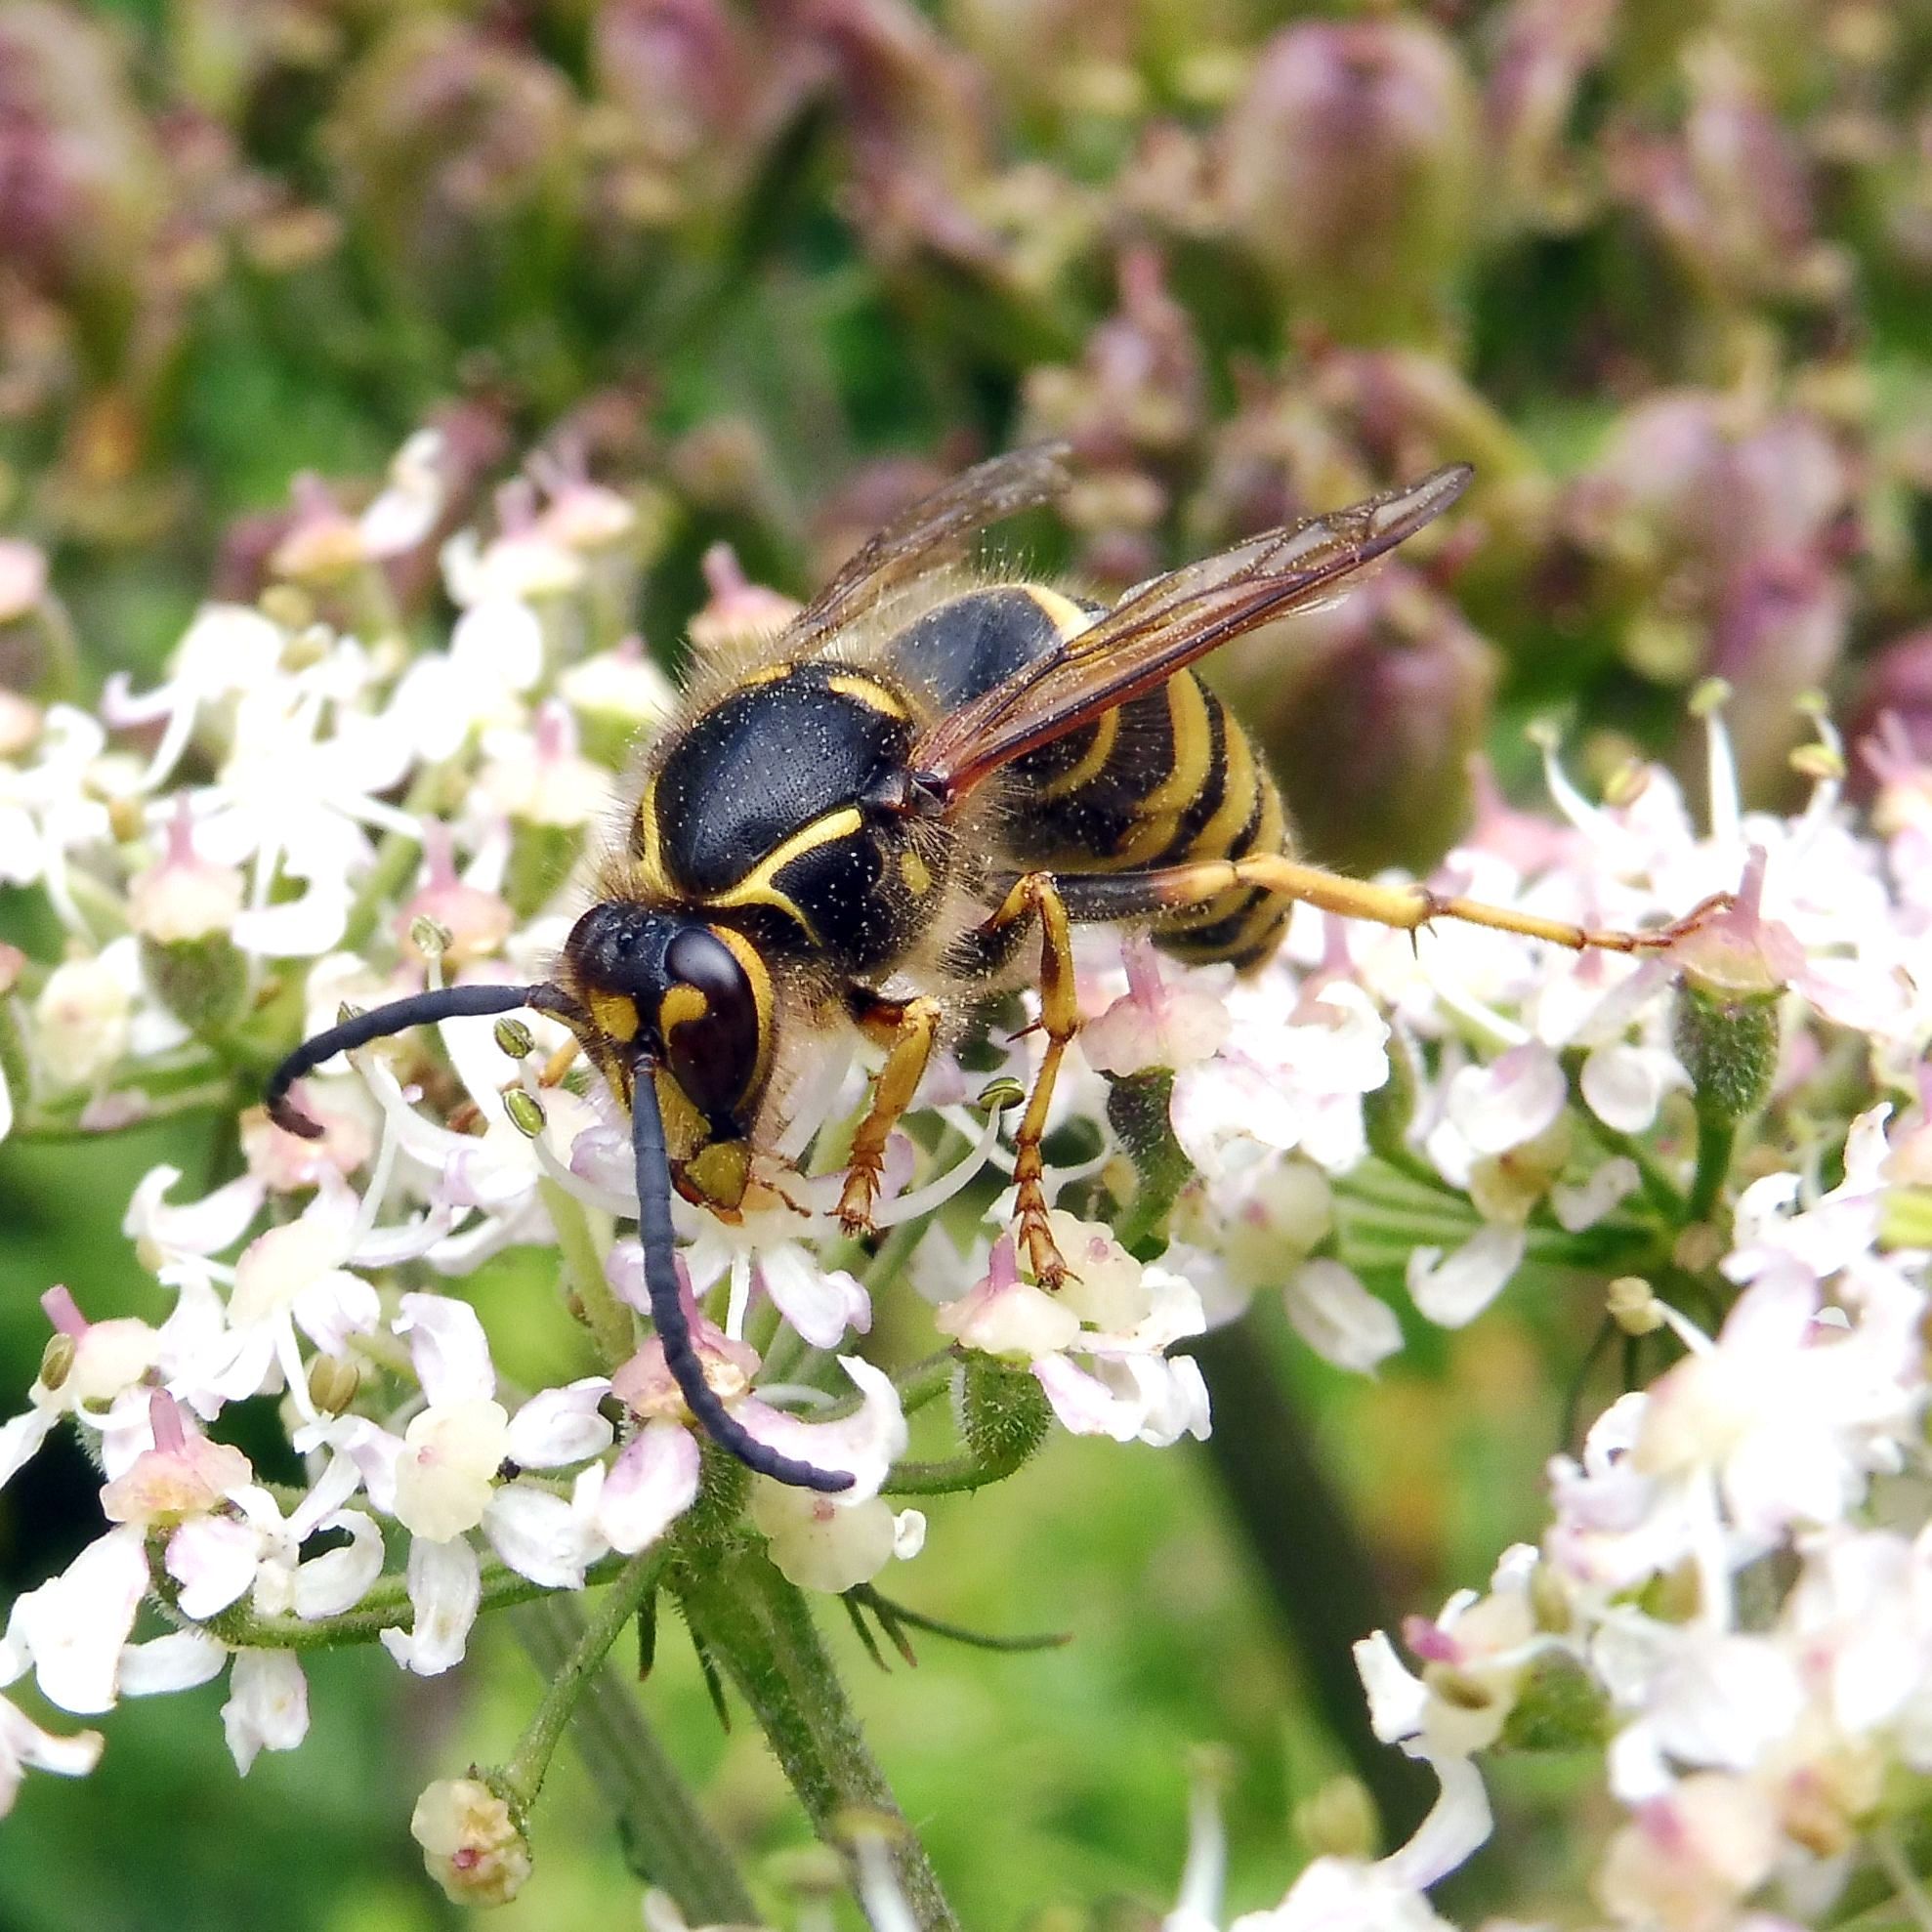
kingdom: Animalia
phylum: Arthropoda
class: Insecta
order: Hymenoptera
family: Vespidae
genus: Dolichovespula
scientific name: Dolichovespula media
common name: Median wasp
